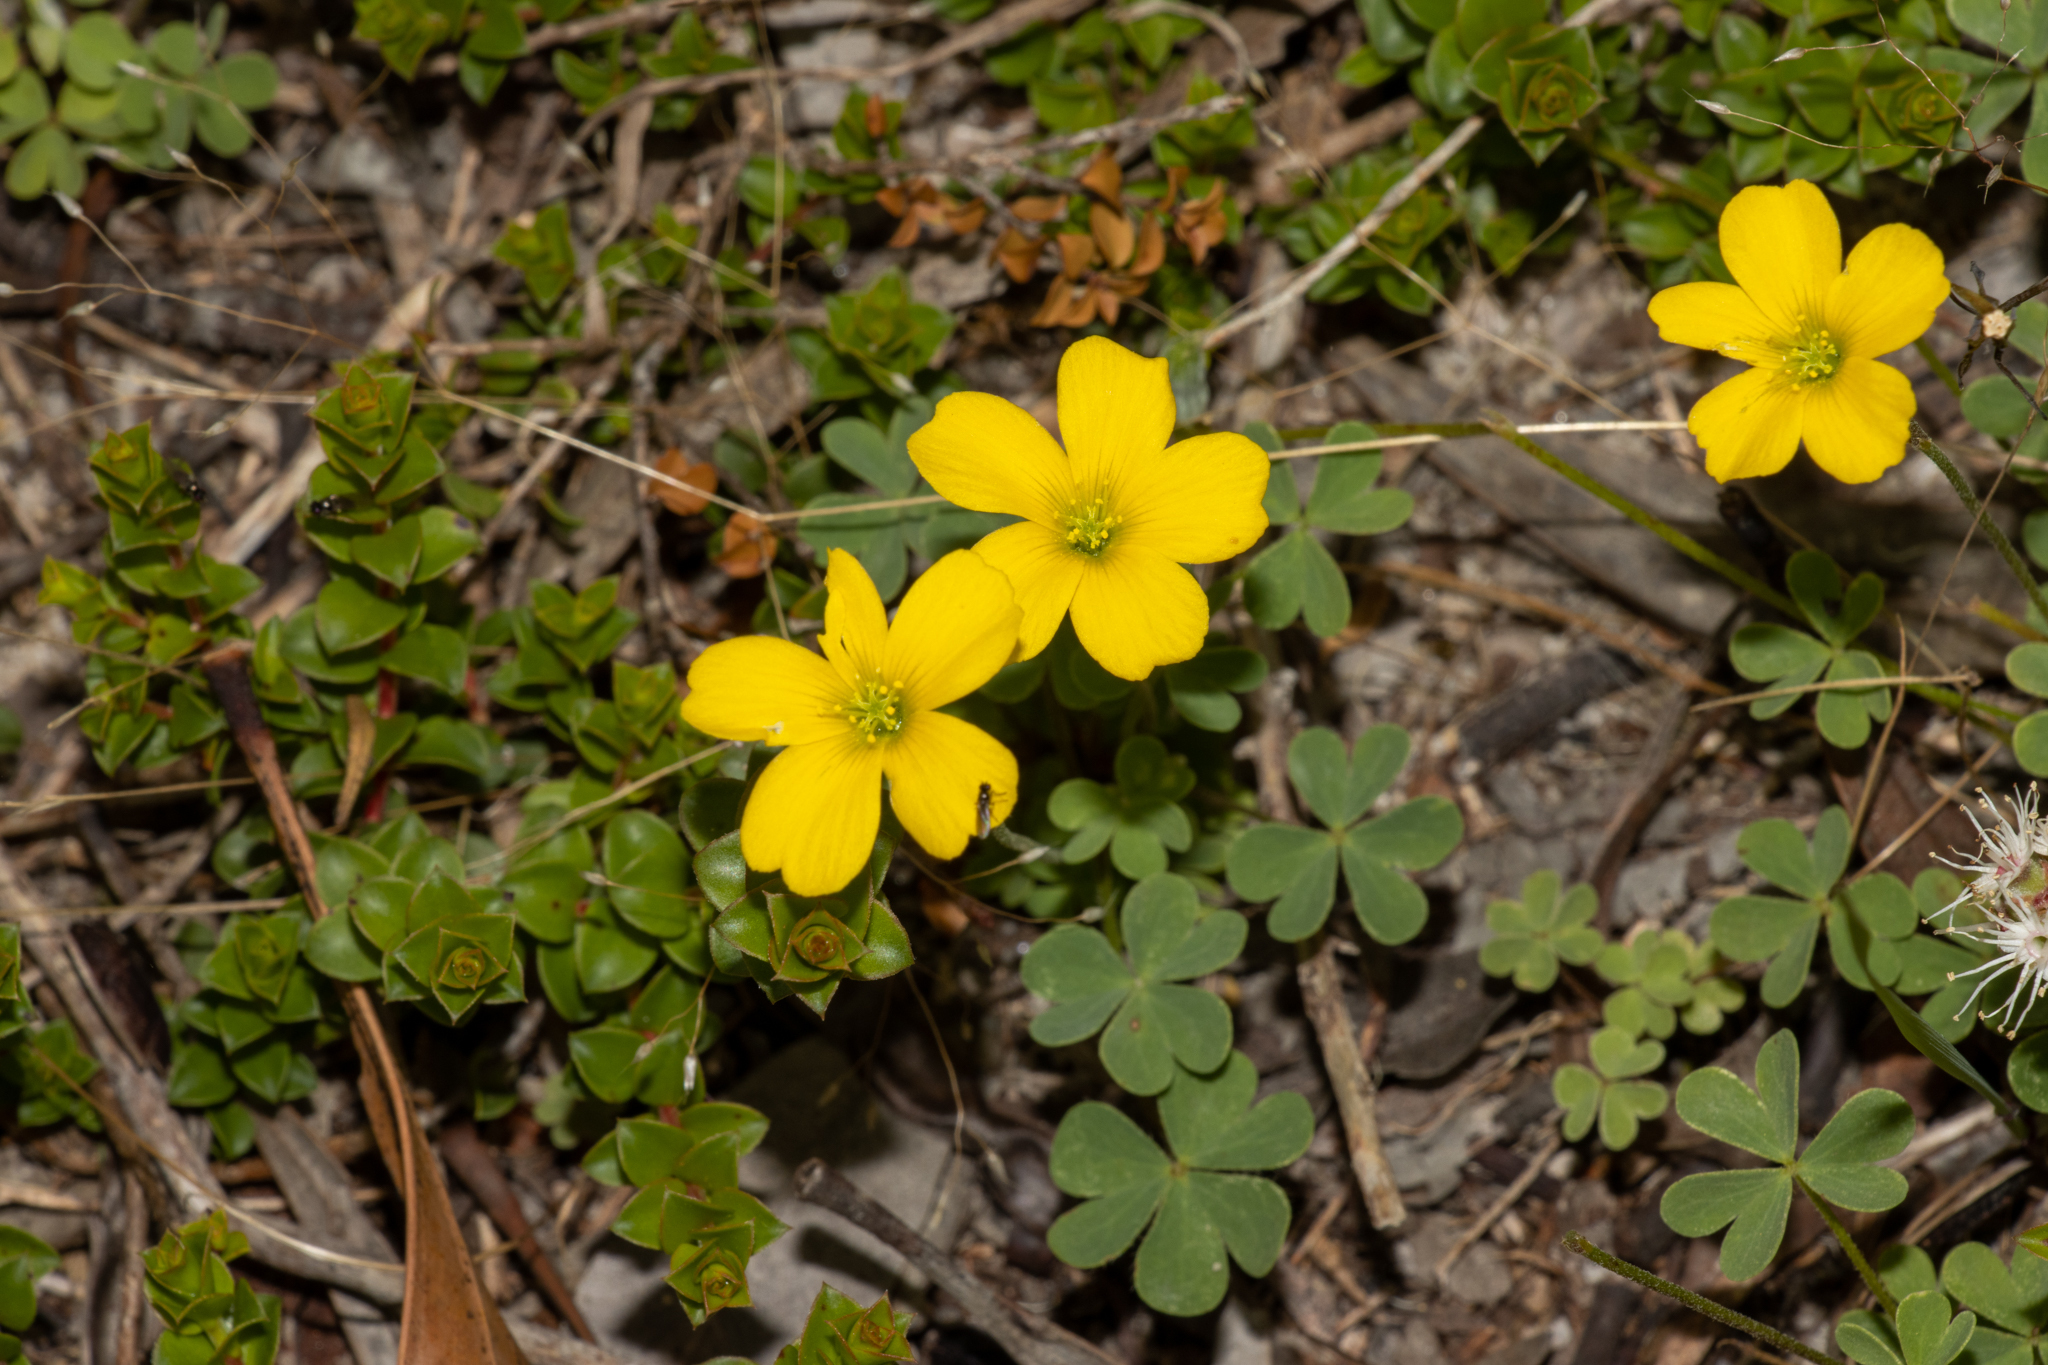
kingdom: Plantae
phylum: Tracheophyta
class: Magnoliopsida
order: Oxalidales
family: Oxalidaceae
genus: Oxalis
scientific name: Oxalis perennans
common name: Woody-rooted yellow-sorrel
